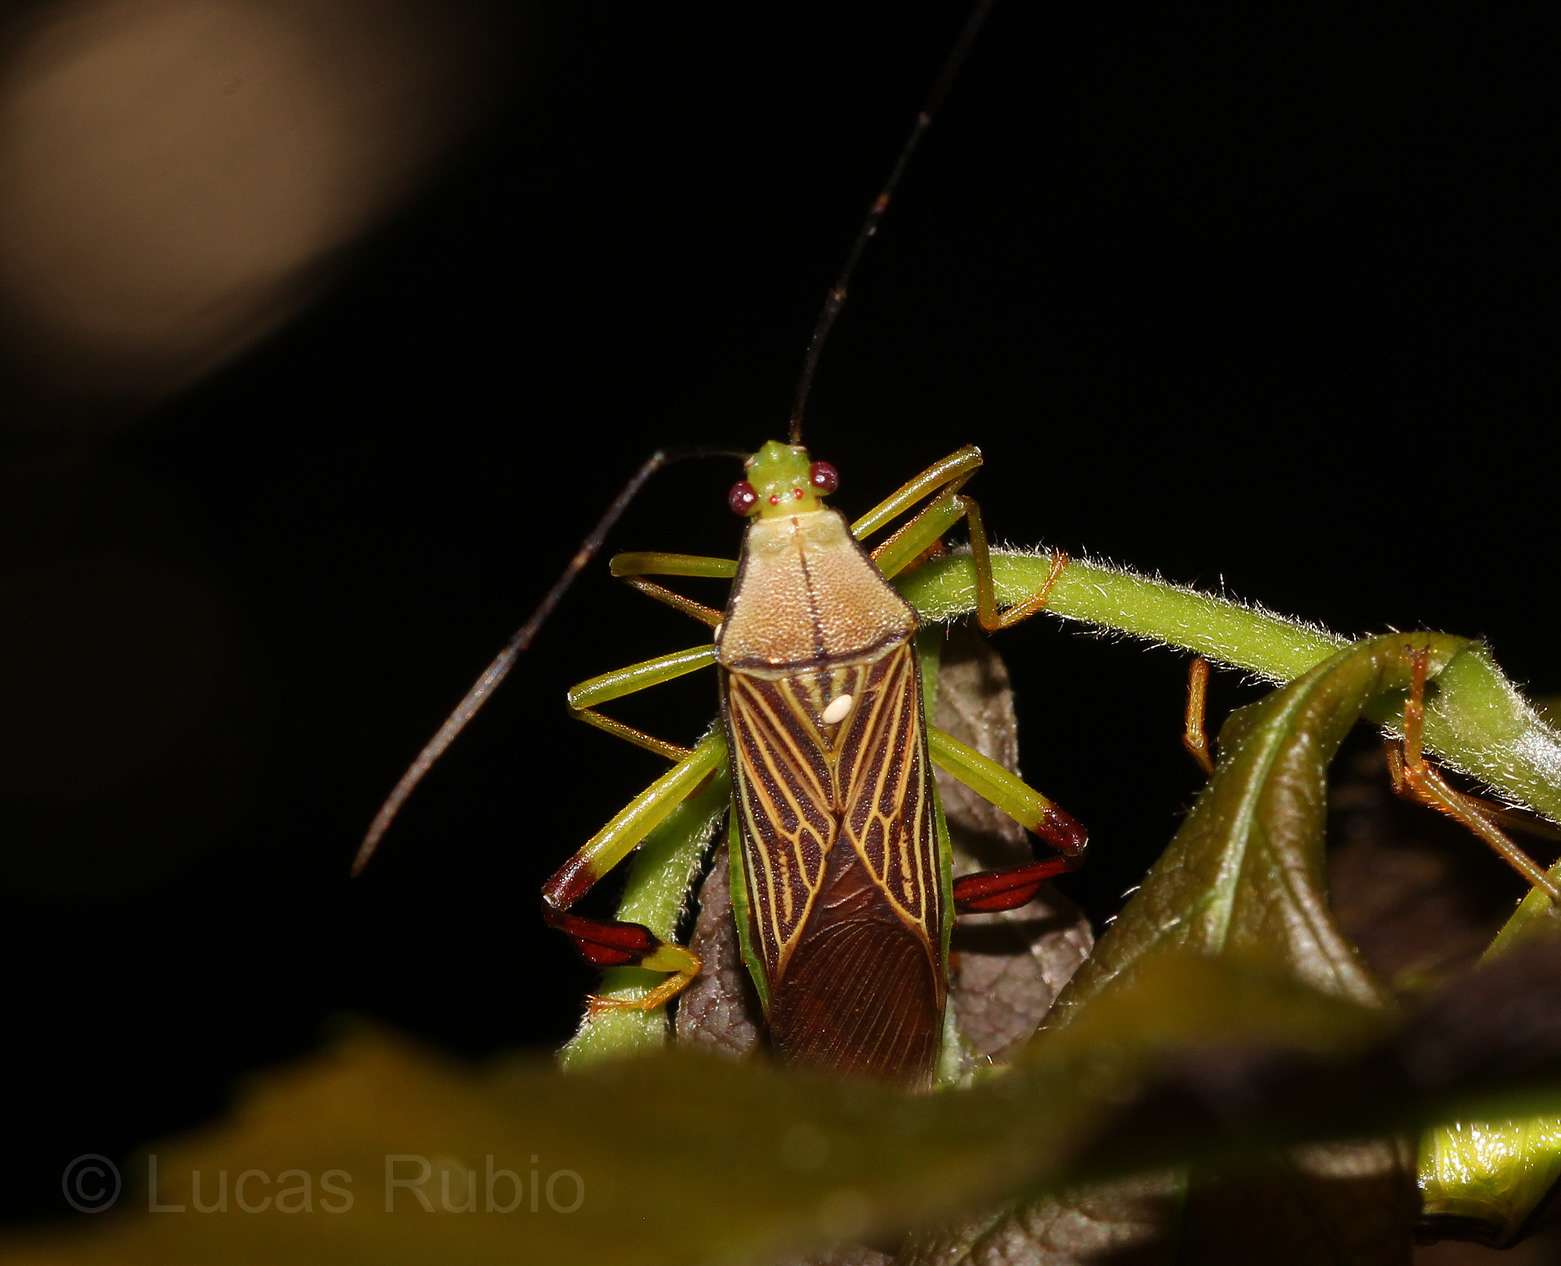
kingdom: Animalia
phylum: Arthropoda
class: Insecta
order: Hemiptera
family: Coreidae
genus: Melucha
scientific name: Melucha chapadana
